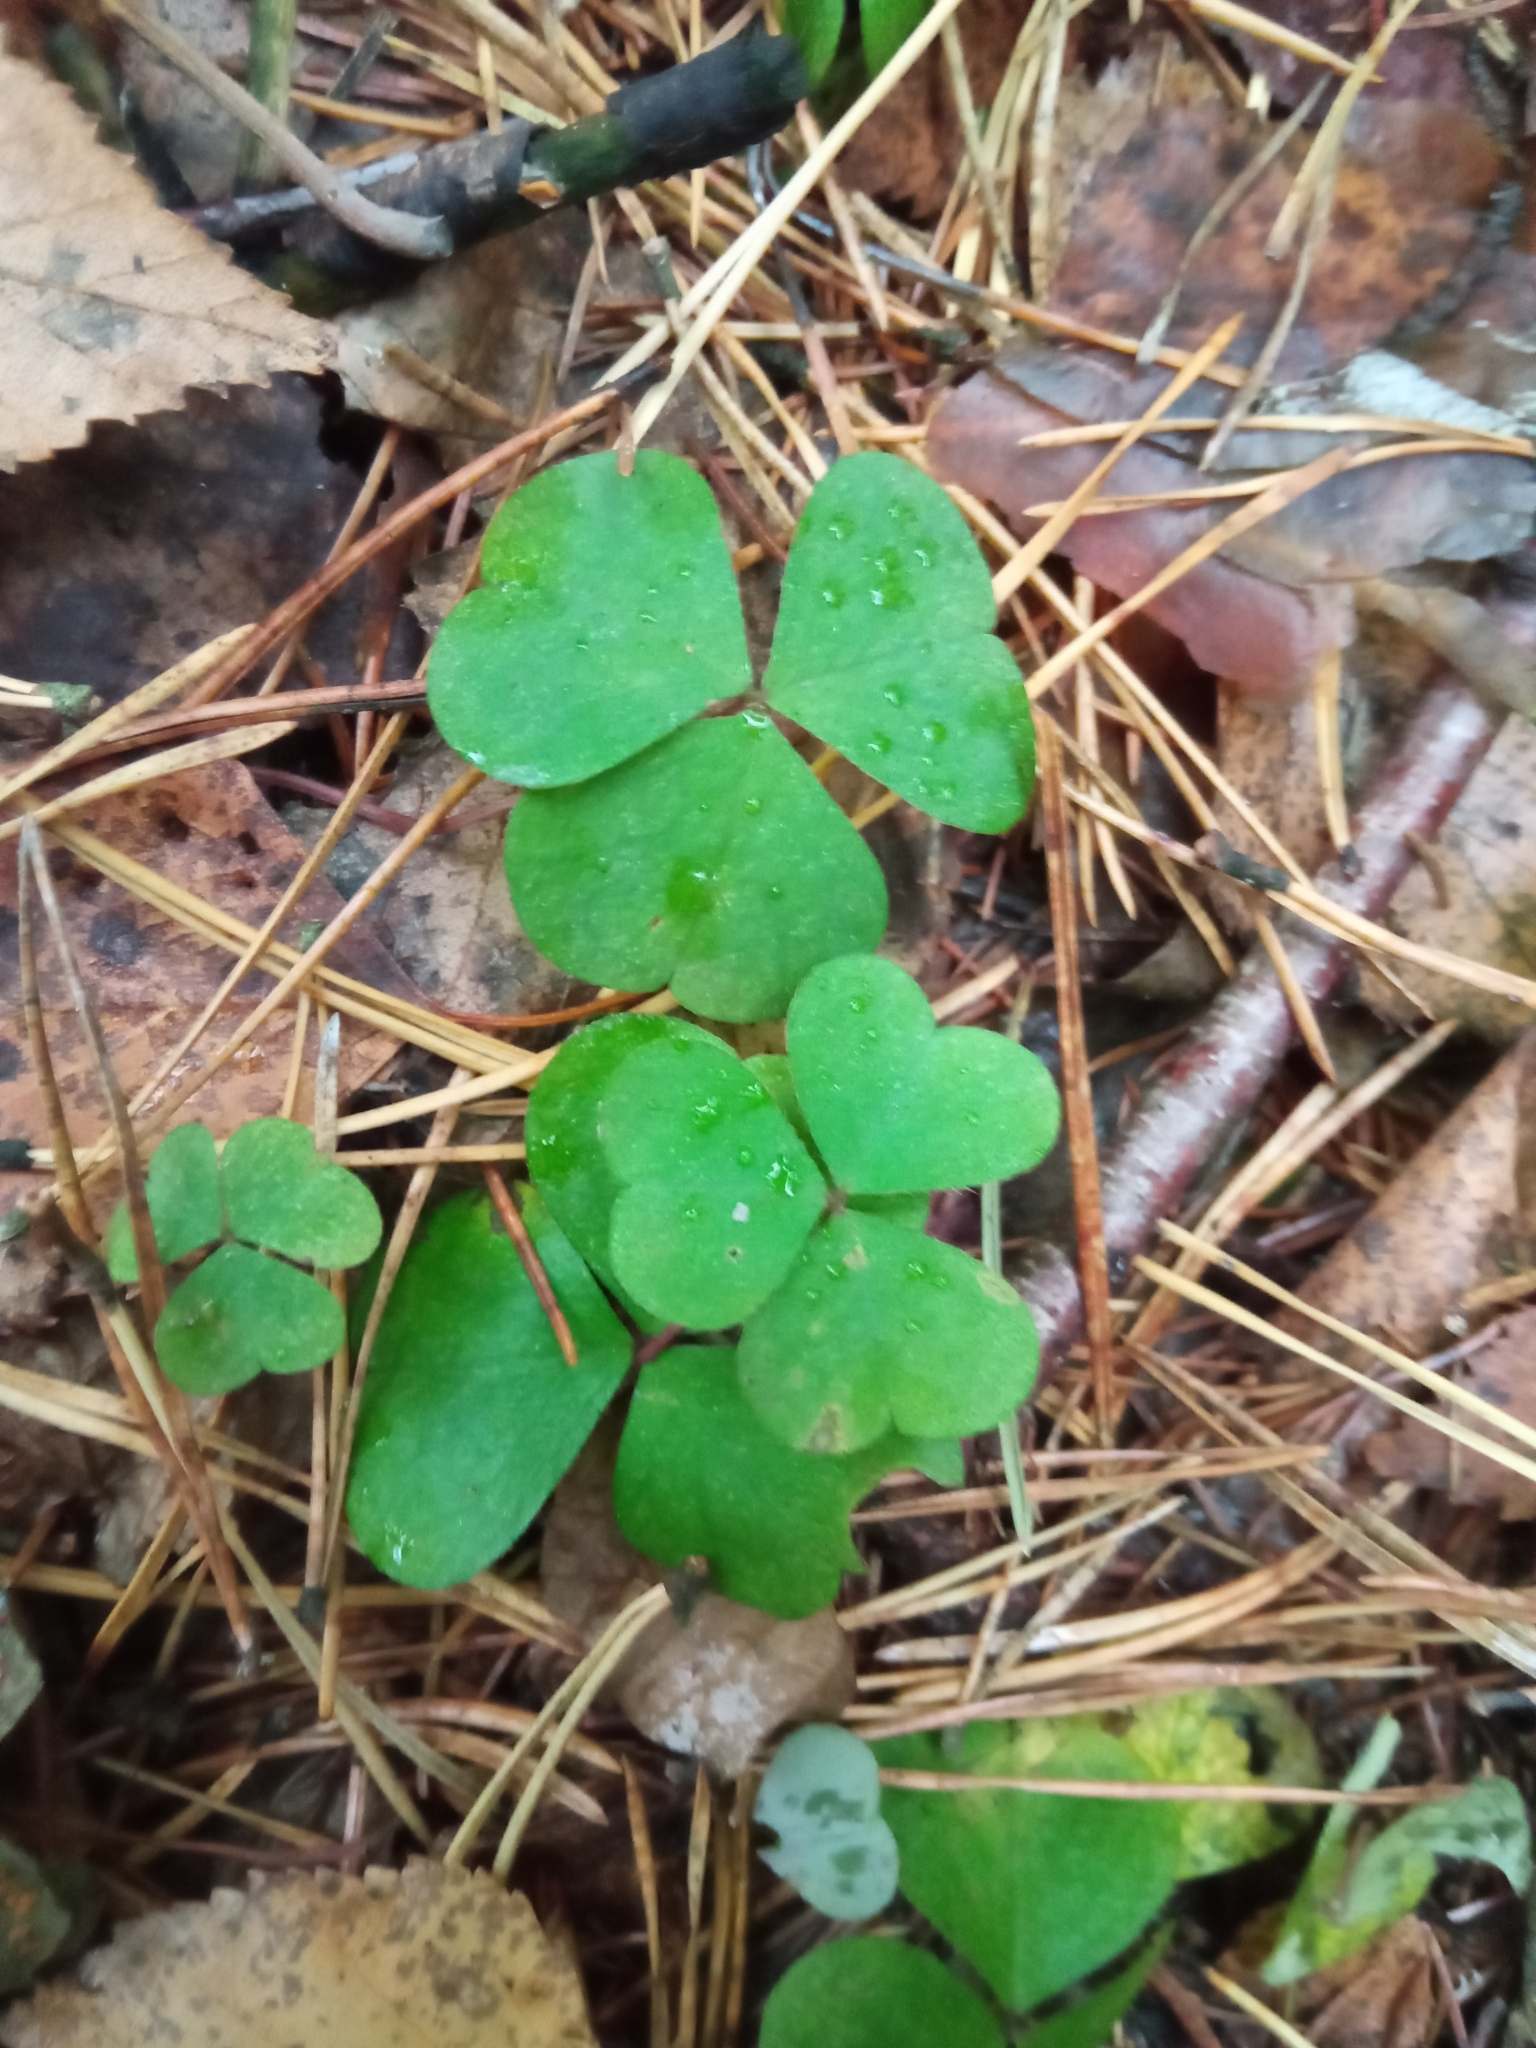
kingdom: Plantae
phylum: Tracheophyta
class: Magnoliopsida
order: Oxalidales
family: Oxalidaceae
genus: Oxalis
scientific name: Oxalis acetosella
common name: Wood-sorrel
